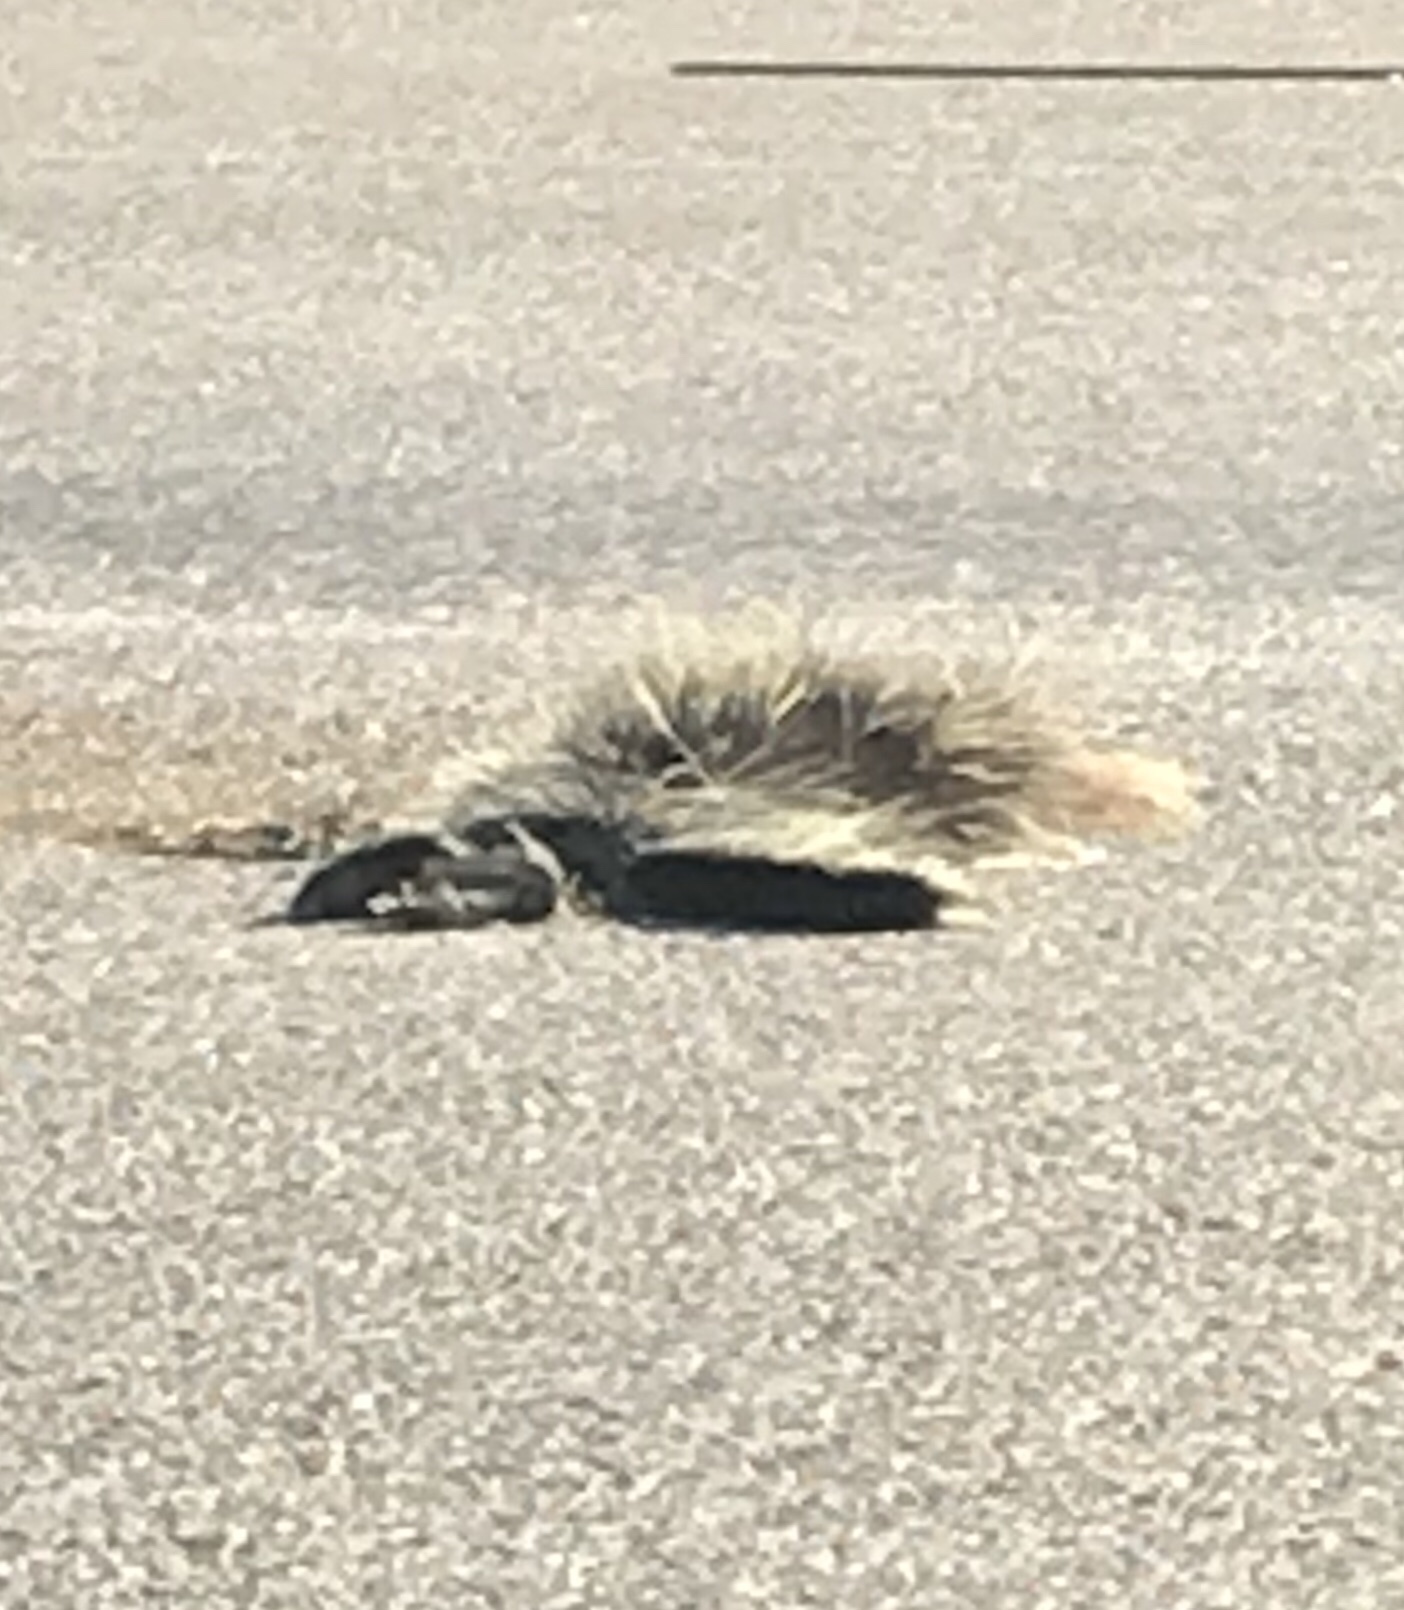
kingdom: Animalia
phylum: Chordata
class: Mammalia
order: Rodentia
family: Erethizontidae
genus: Erethizon
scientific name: Erethizon dorsatus
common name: North american porcupine
